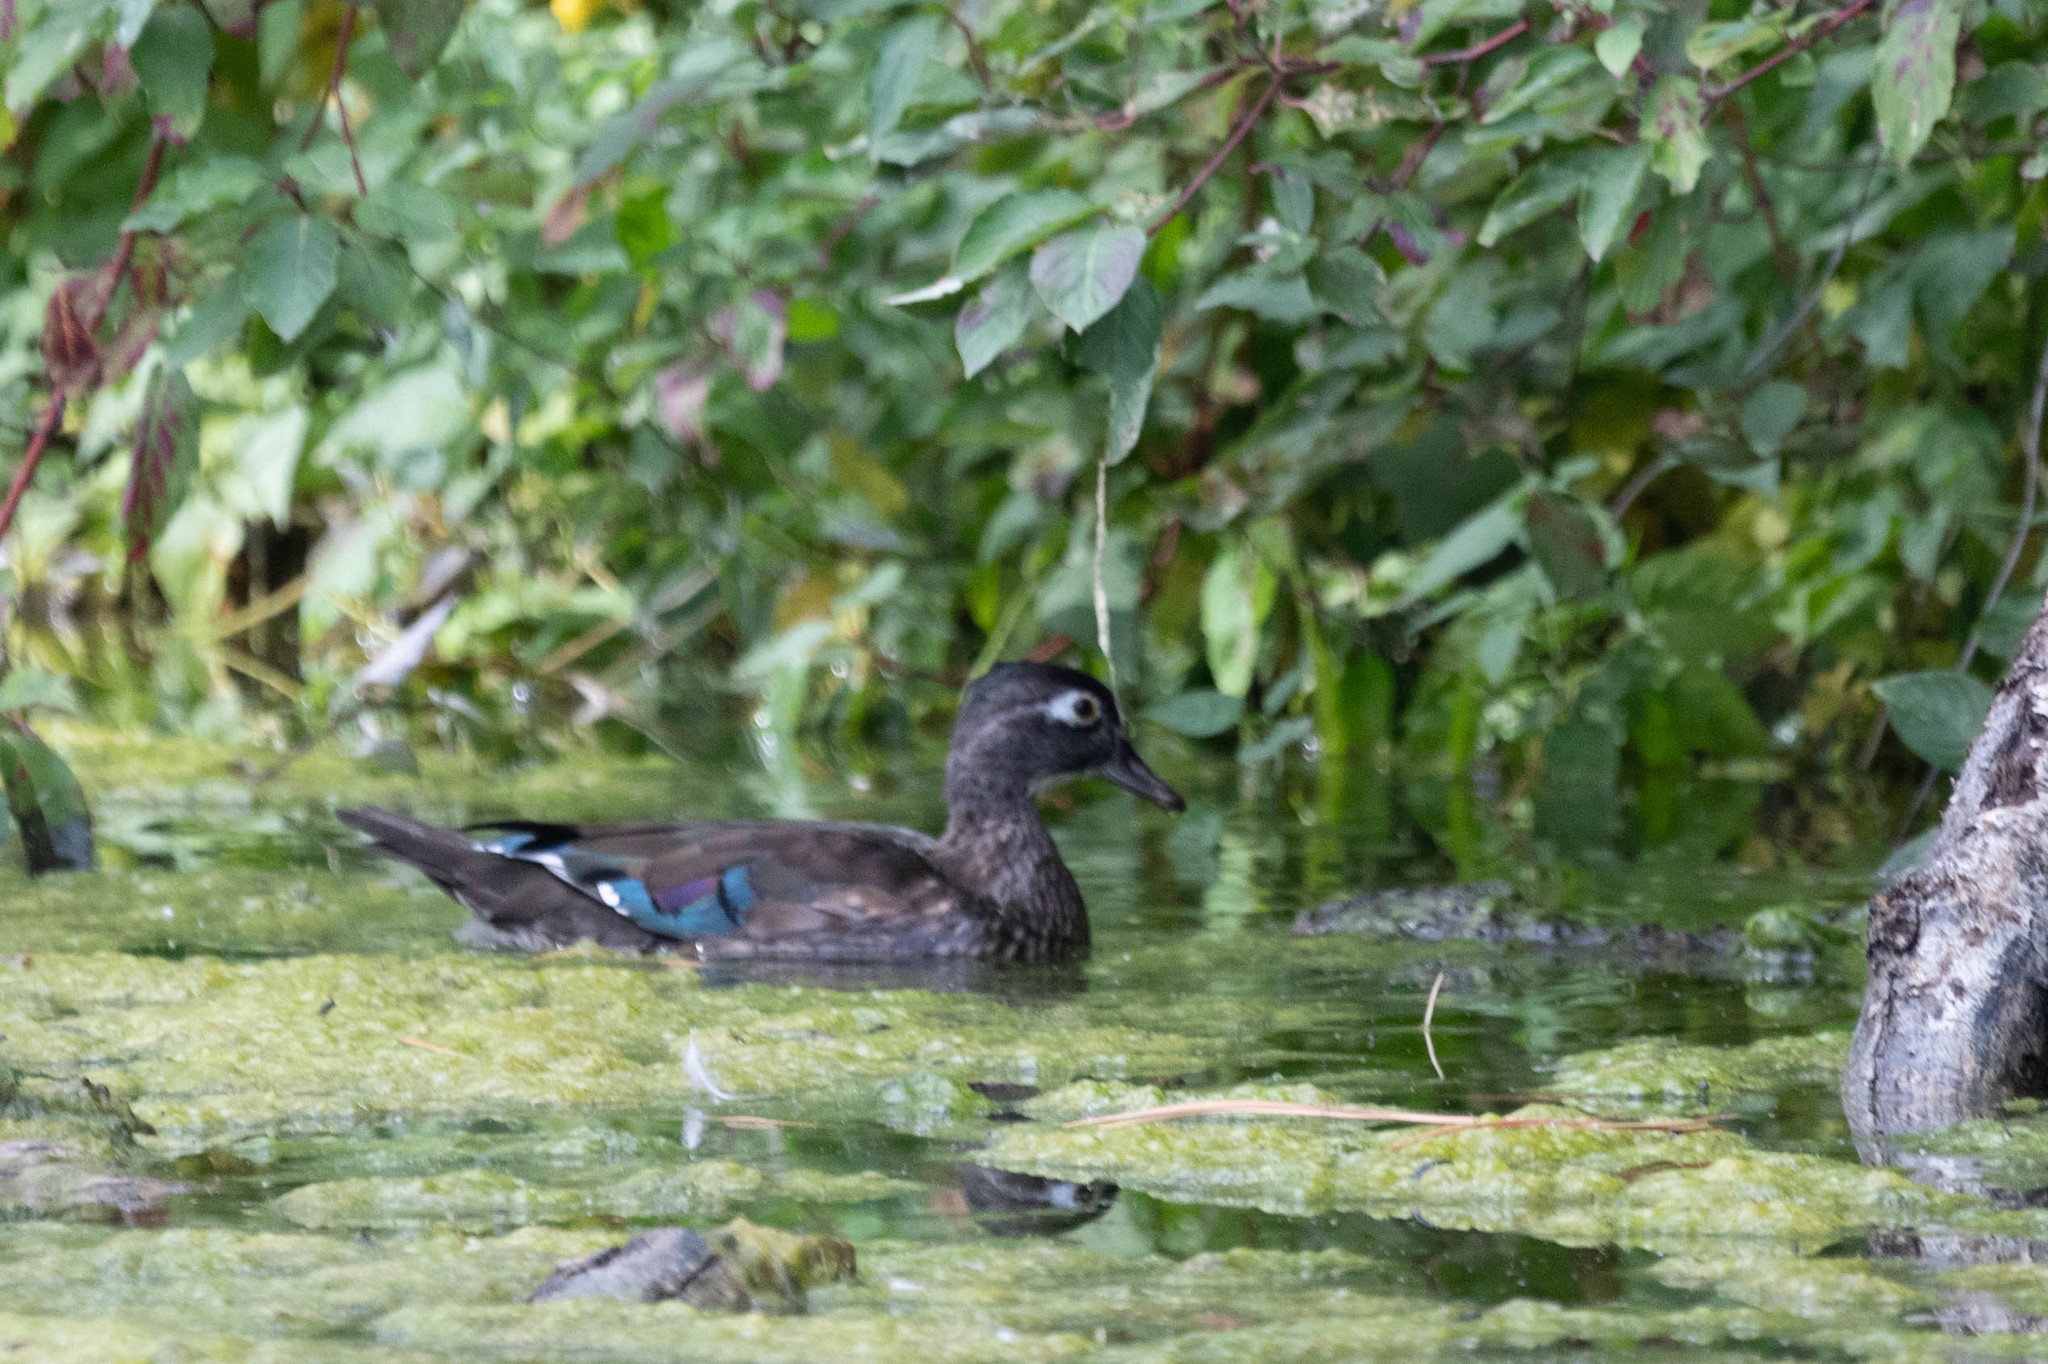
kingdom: Animalia
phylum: Chordata
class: Aves
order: Anseriformes
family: Anatidae
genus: Aix
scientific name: Aix sponsa
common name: Wood duck
